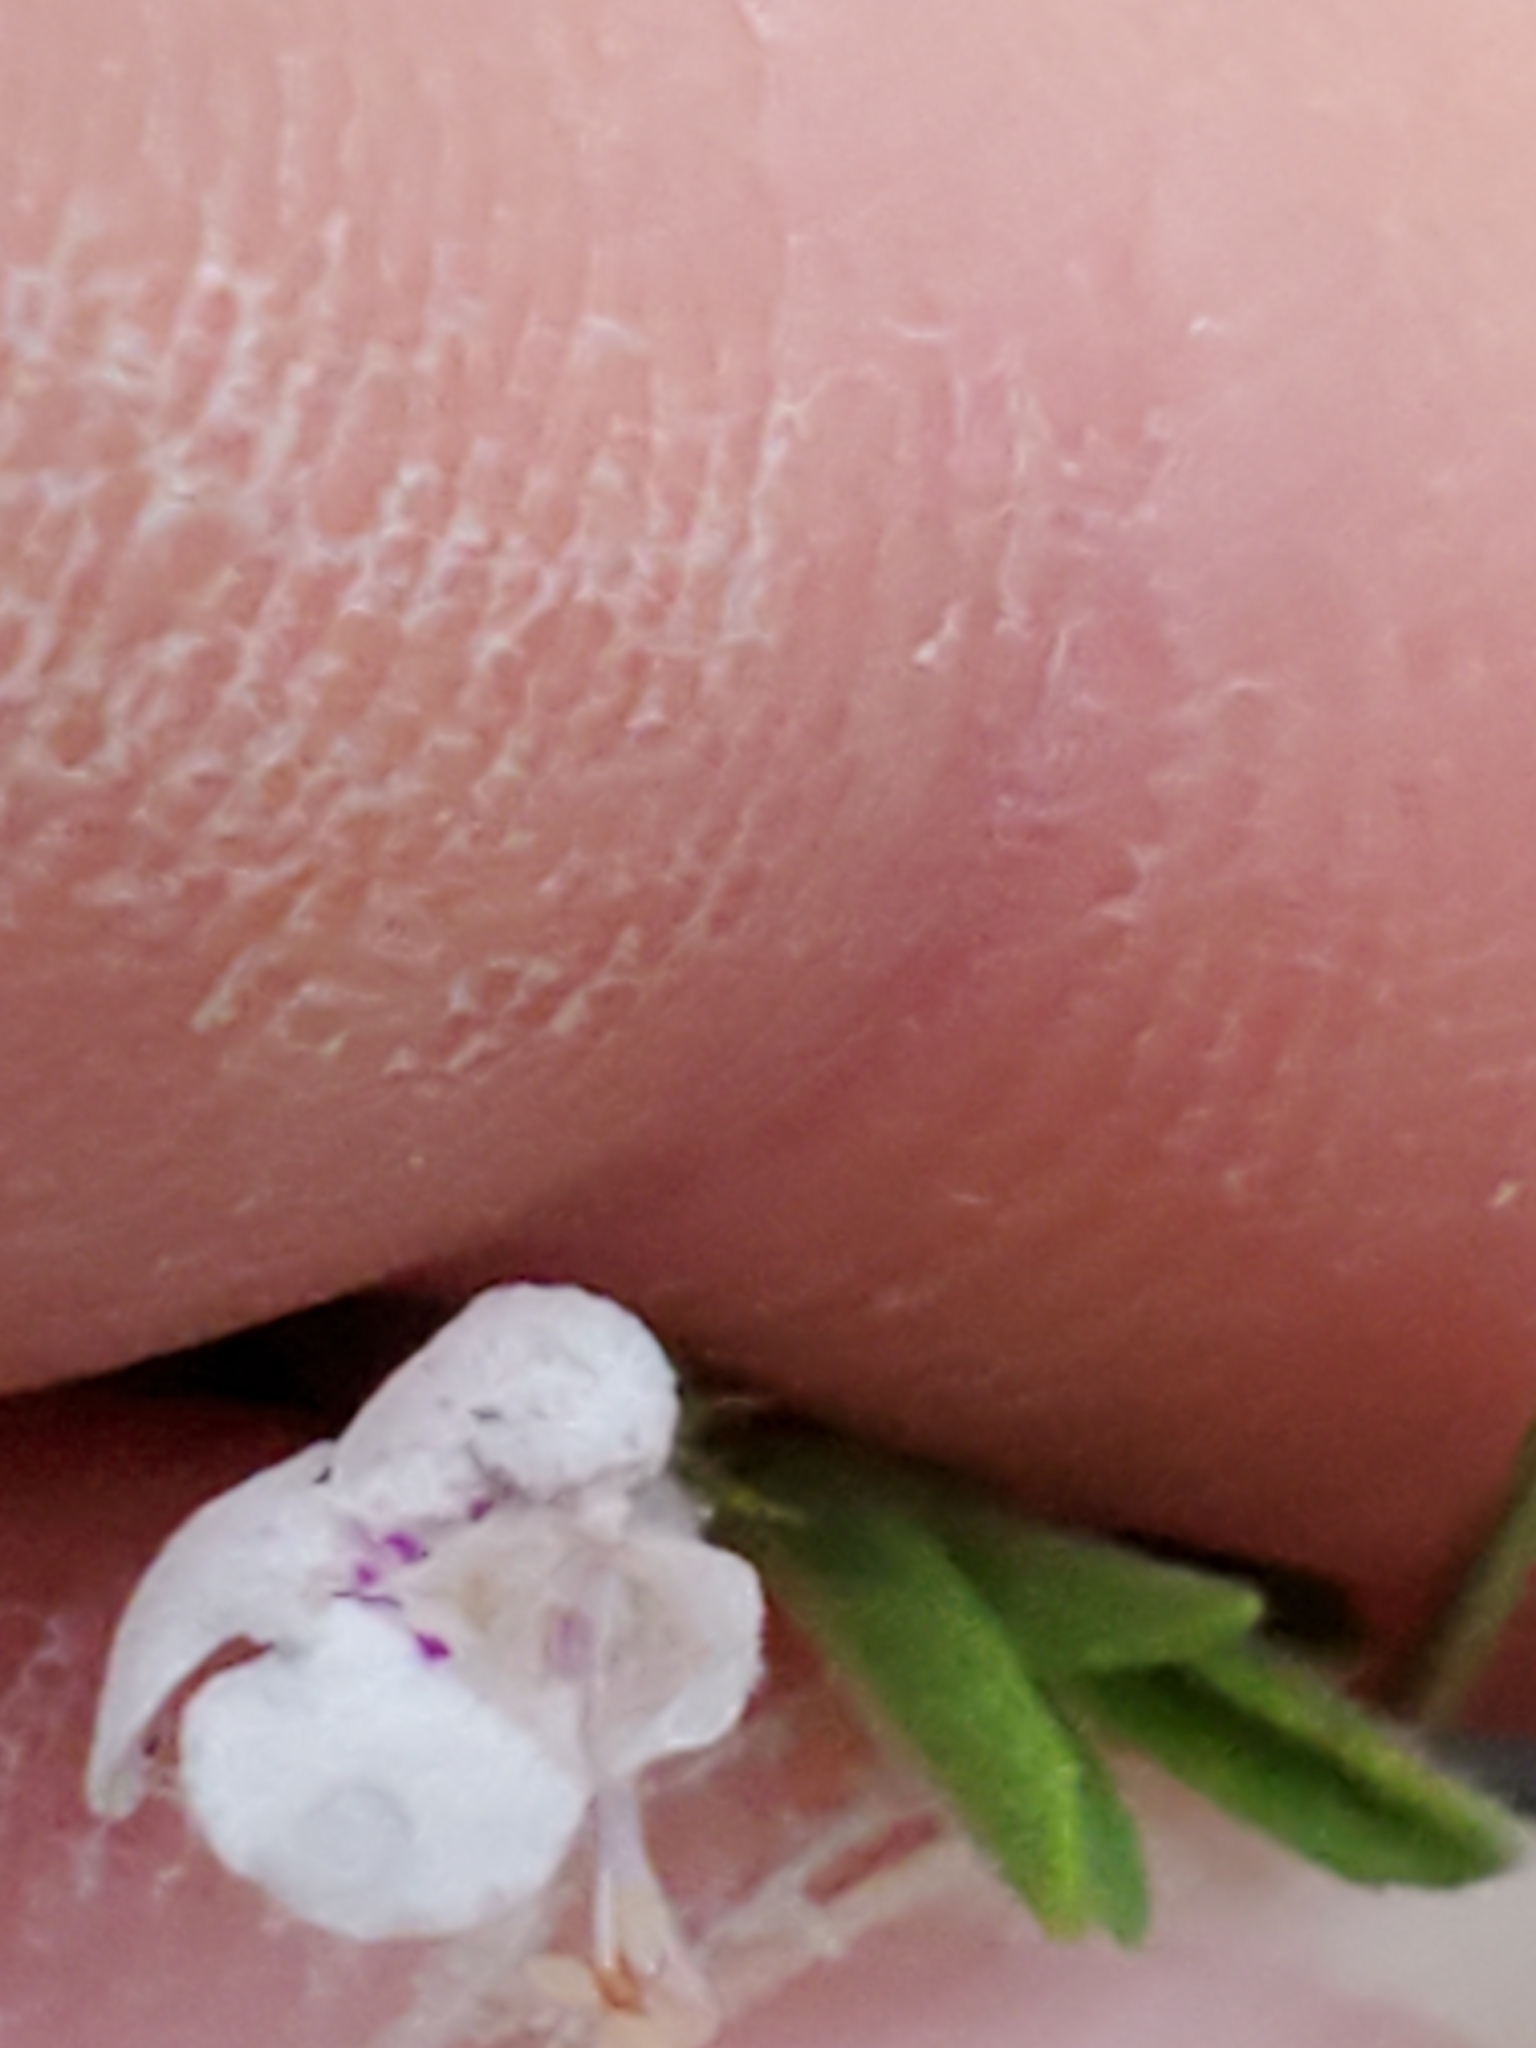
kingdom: Plantae
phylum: Tracheophyta
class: Magnoliopsida
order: Lamiales
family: Lamiaceae
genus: Hedeoma
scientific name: Hedeoma reverchonii
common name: Reverchon's false penny-royal
